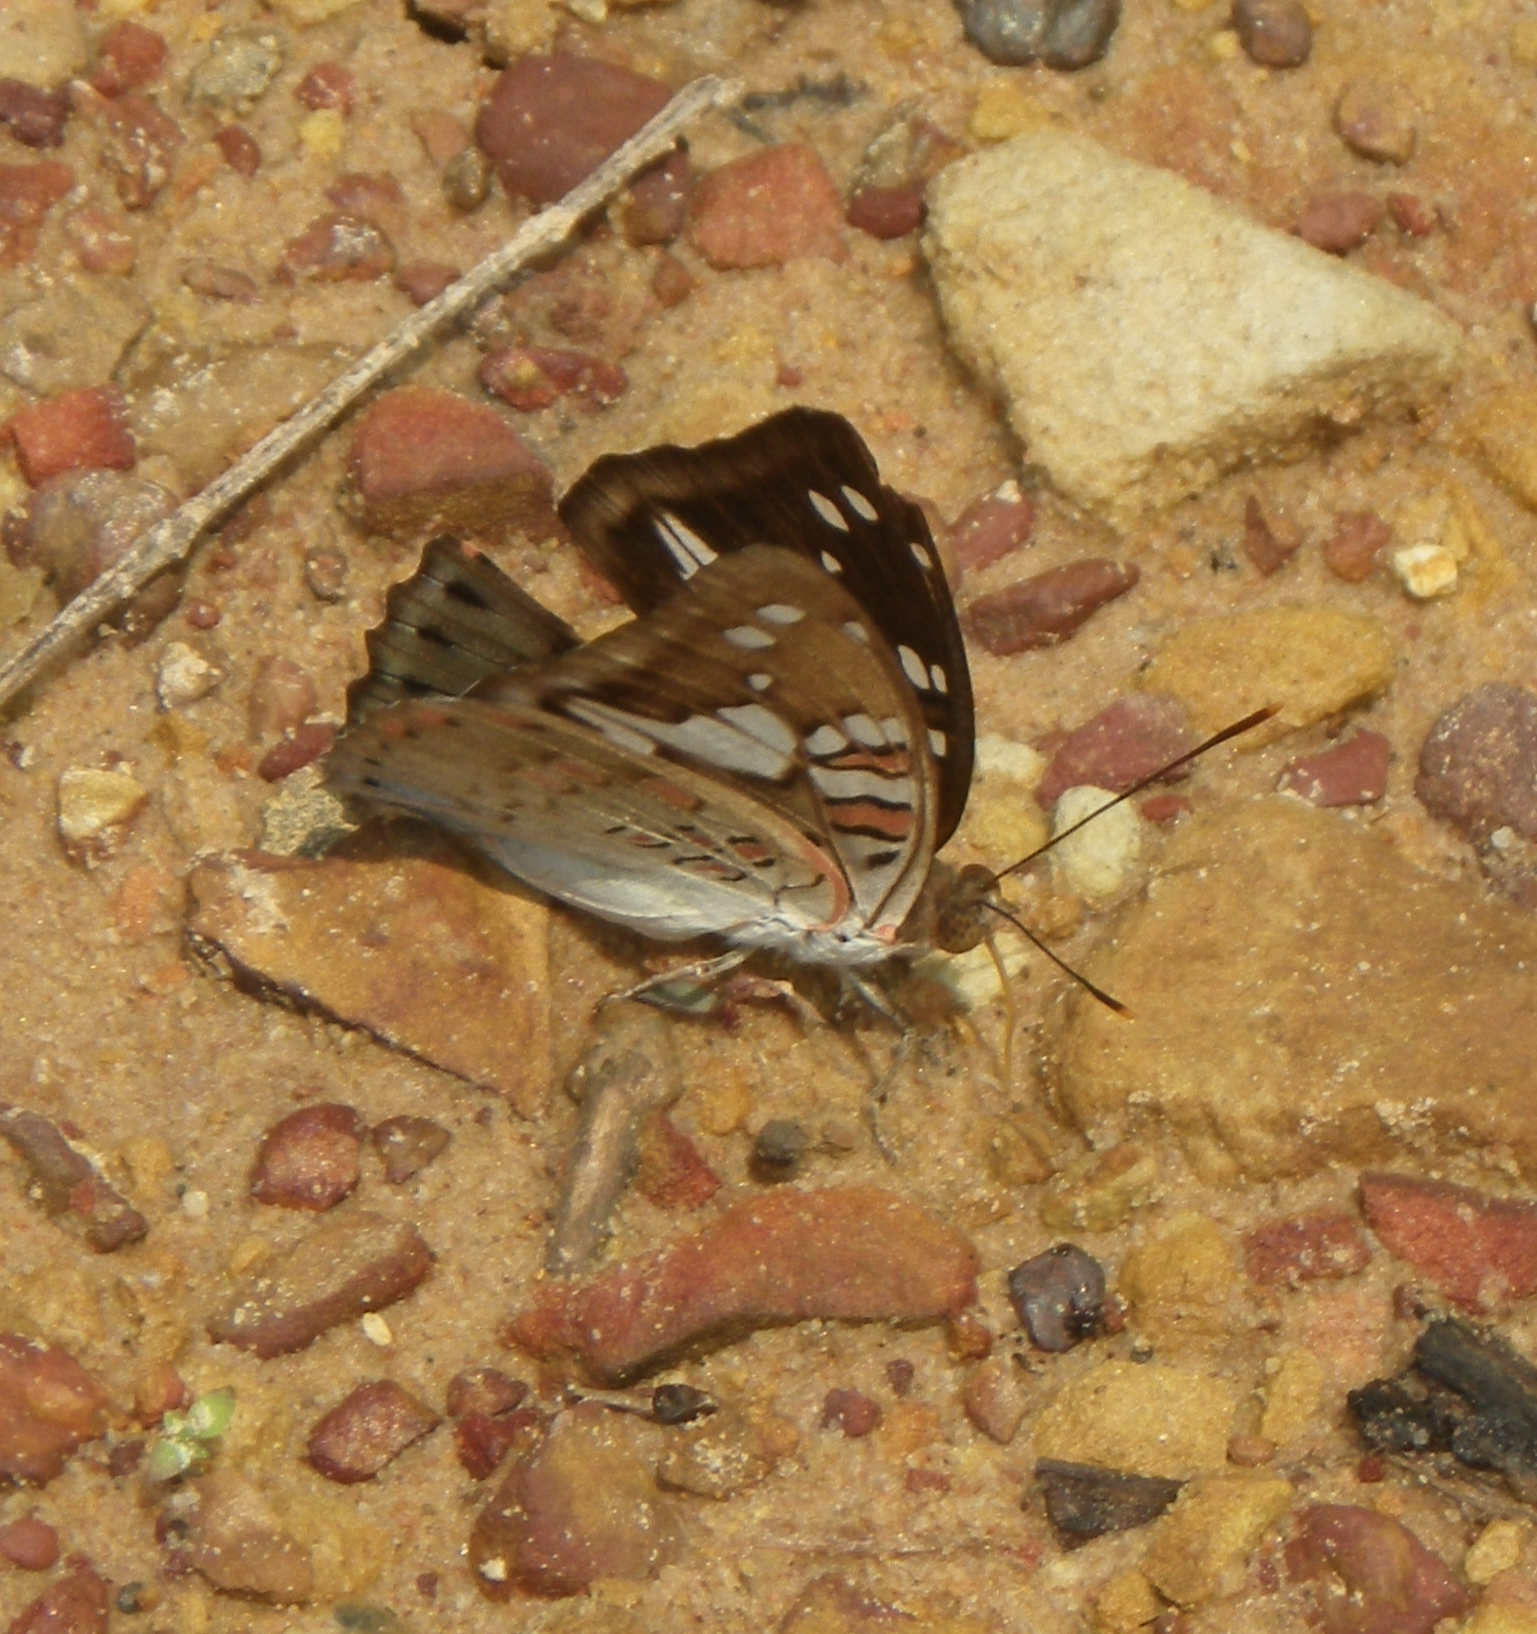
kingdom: Animalia
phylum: Arthropoda
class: Insecta
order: Lepidoptera
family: Nymphalidae
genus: Euthalia
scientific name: Euthalia malaccana
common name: Fruhstorfer's baron
